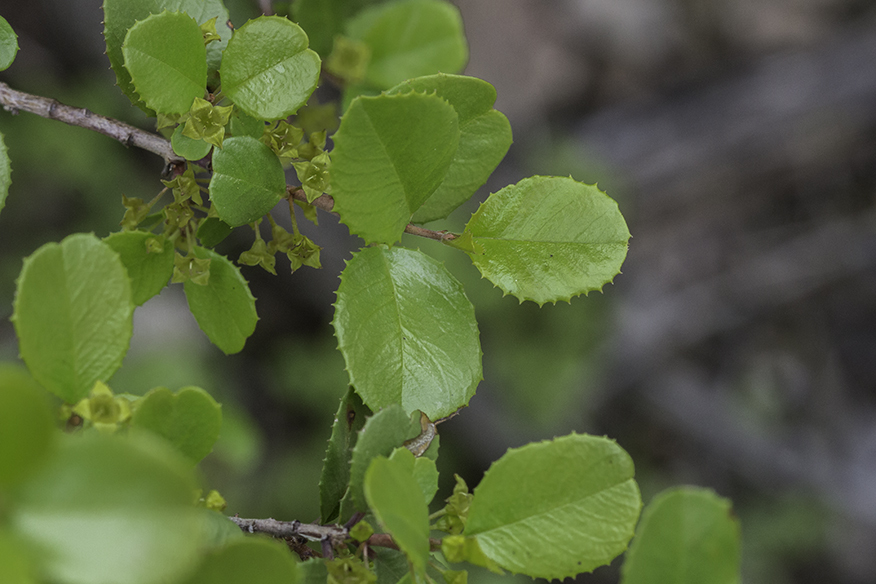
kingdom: Plantae
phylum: Tracheophyta
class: Magnoliopsida
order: Rosales
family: Rhamnaceae
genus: Endotropis
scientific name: Endotropis crocea
